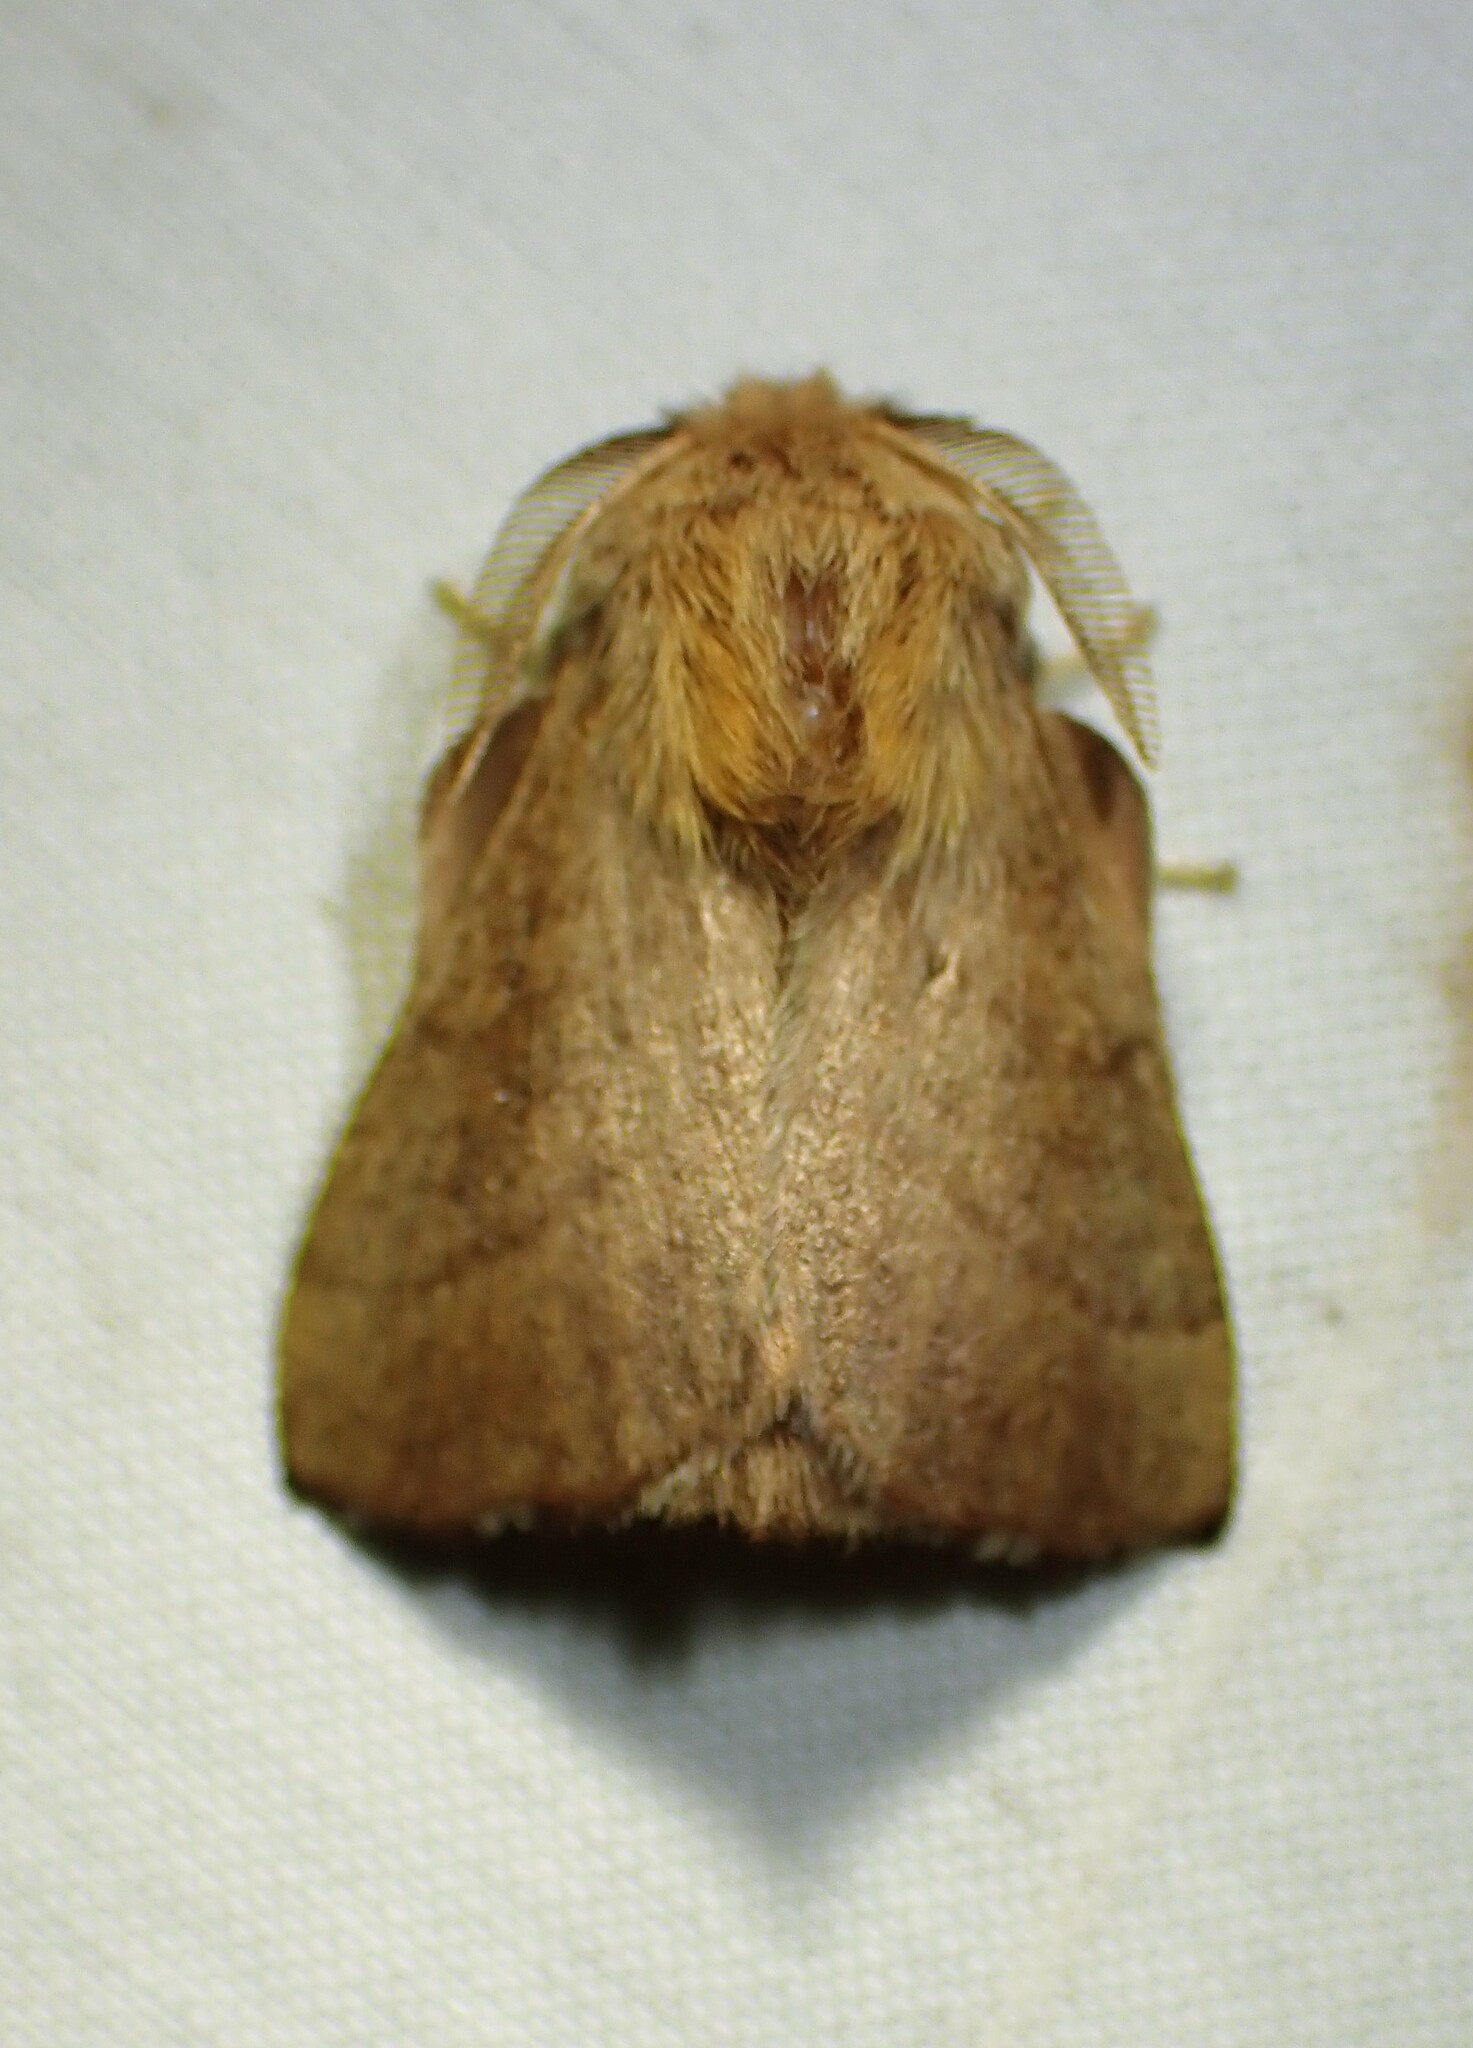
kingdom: Animalia
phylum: Arthropoda
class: Insecta
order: Lepidoptera
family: Lasiocampidae
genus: Malacosoma
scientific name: Malacosoma disstria
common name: Forest tent caterpillar
